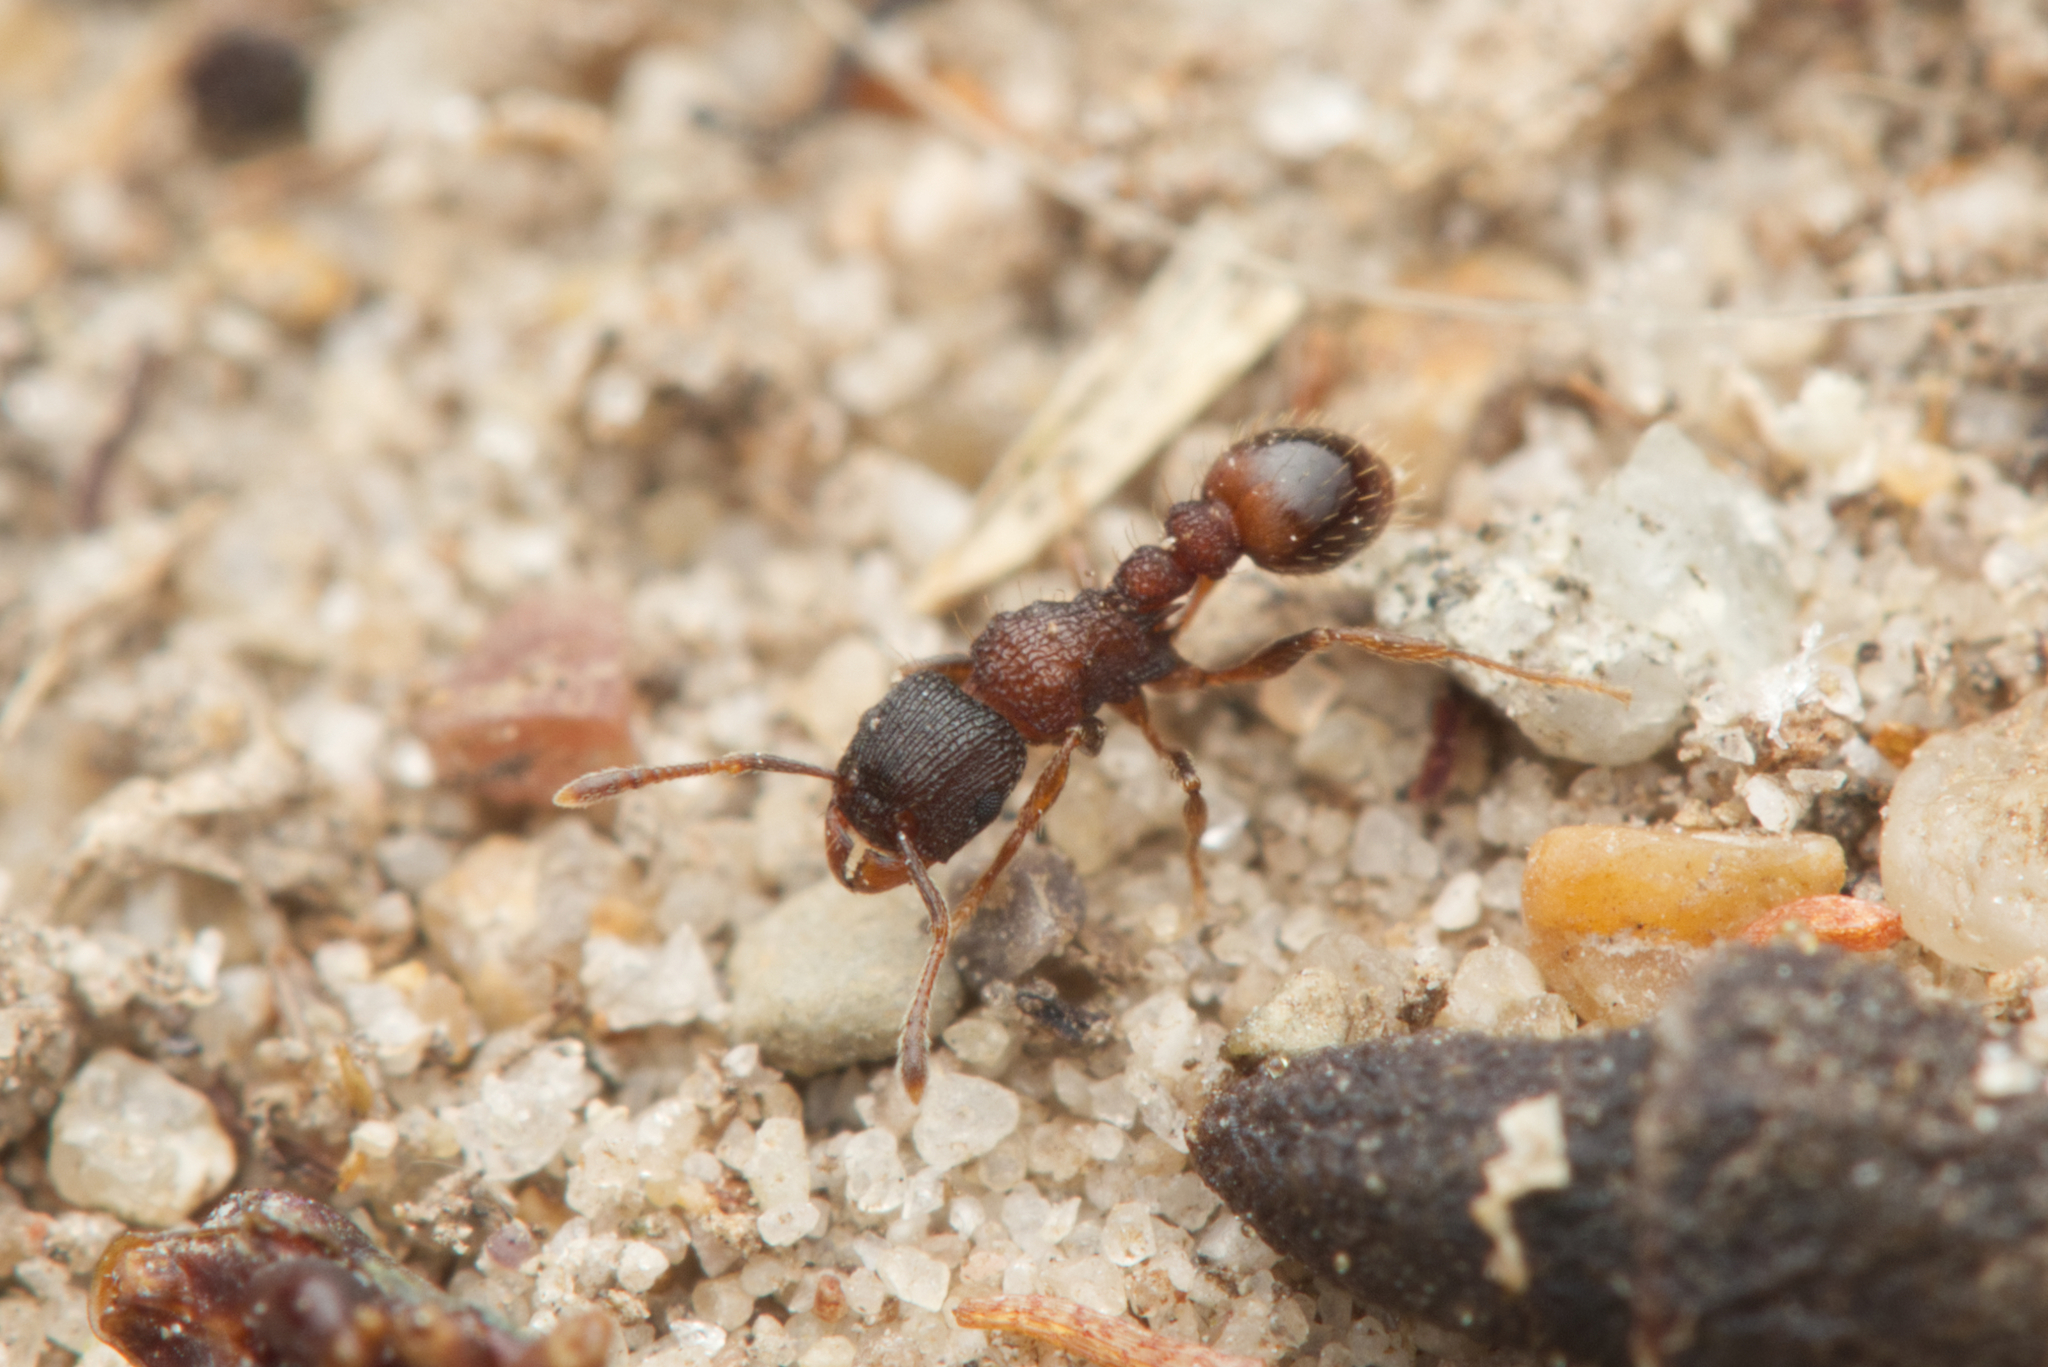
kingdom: Animalia
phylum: Arthropoda
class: Insecta
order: Hymenoptera
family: Formicidae
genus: Tetramorium
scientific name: Tetramorium impressum
